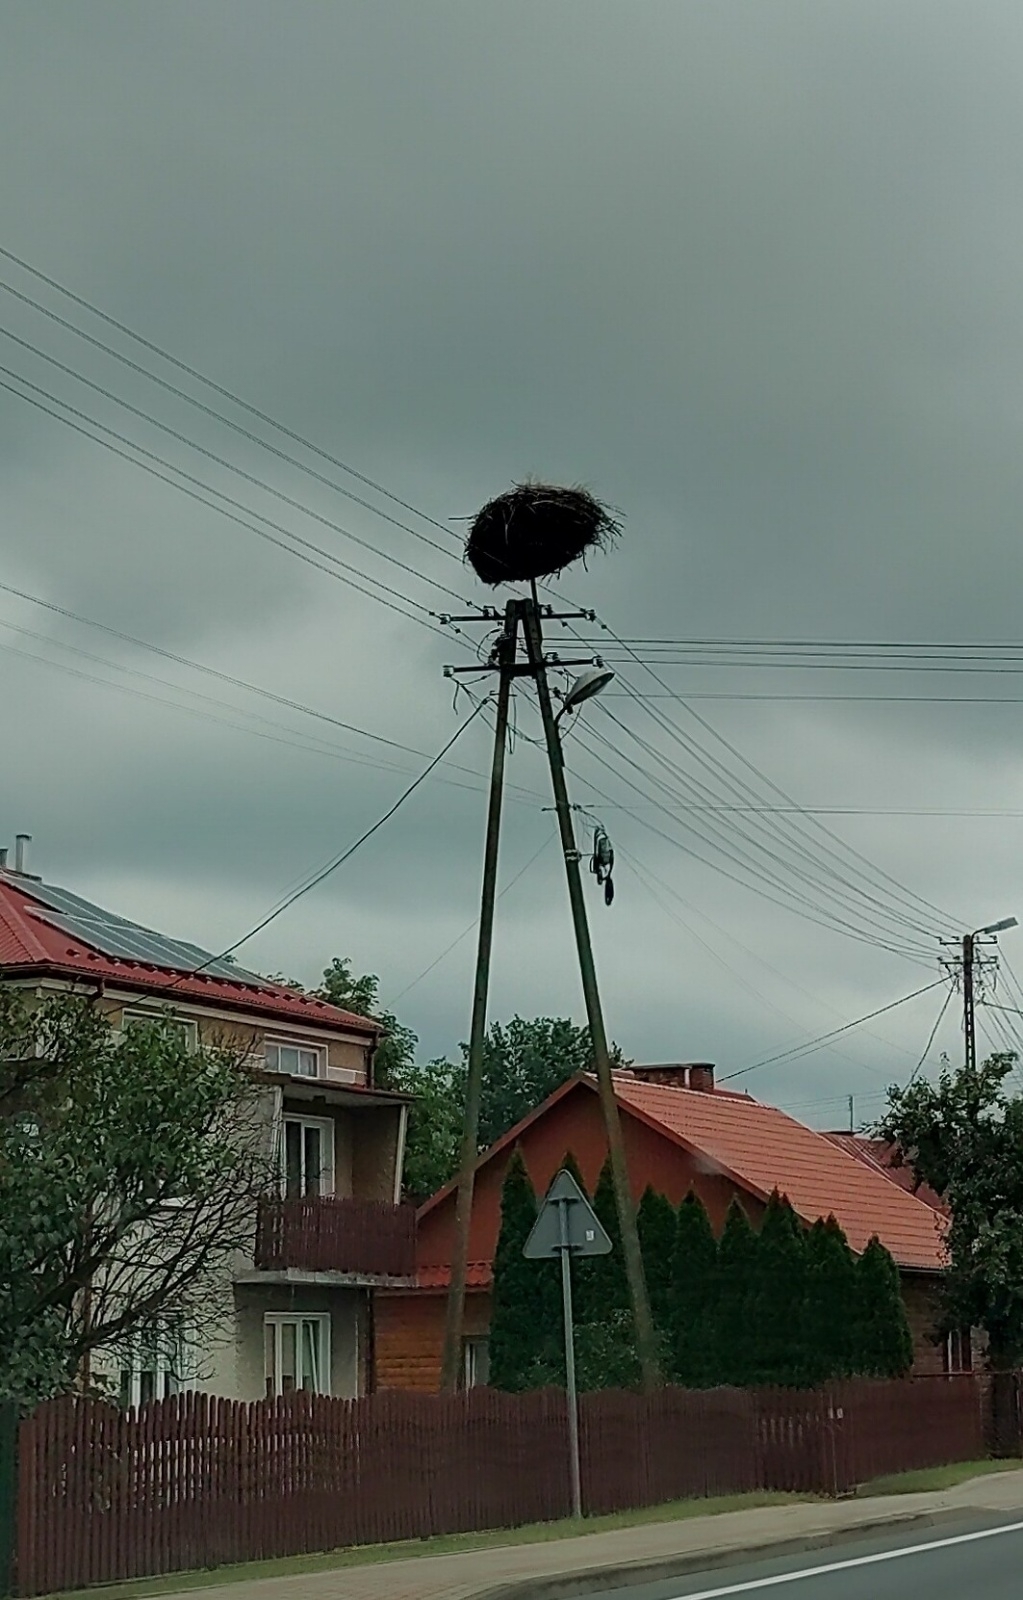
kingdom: Animalia
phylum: Chordata
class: Aves
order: Ciconiiformes
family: Ciconiidae
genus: Ciconia
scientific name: Ciconia ciconia
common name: White stork
